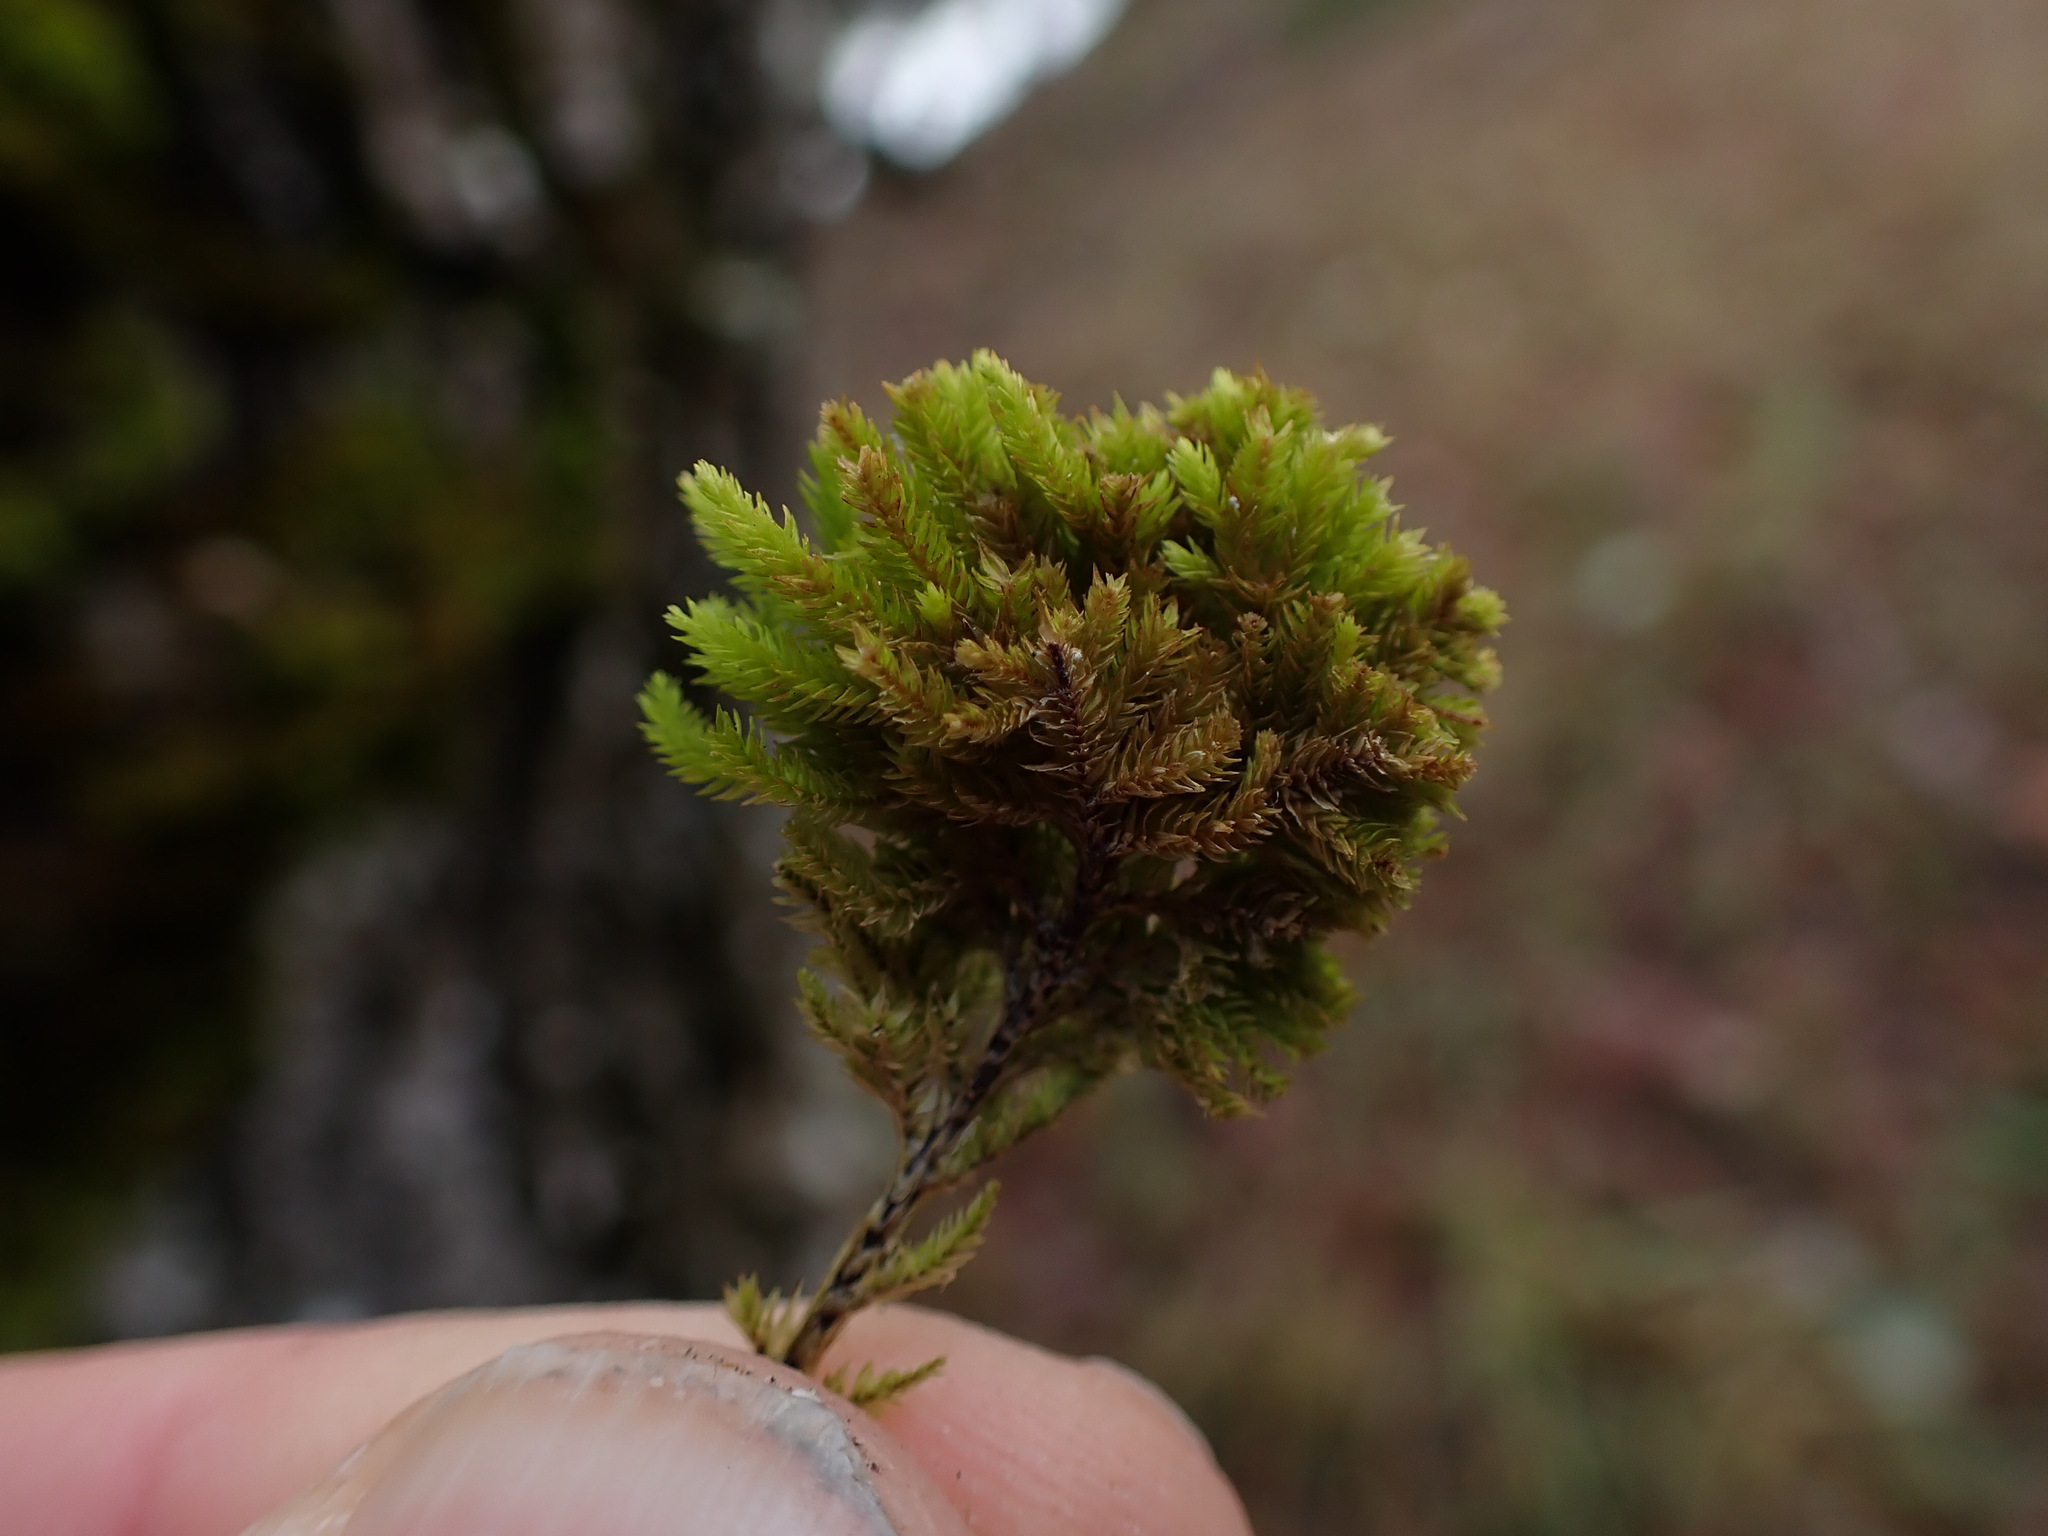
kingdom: Plantae
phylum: Bryophyta
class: Bryopsida
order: Hypnales
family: Cryphaeaceae
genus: Dendroalsia
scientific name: Dendroalsia abietina
